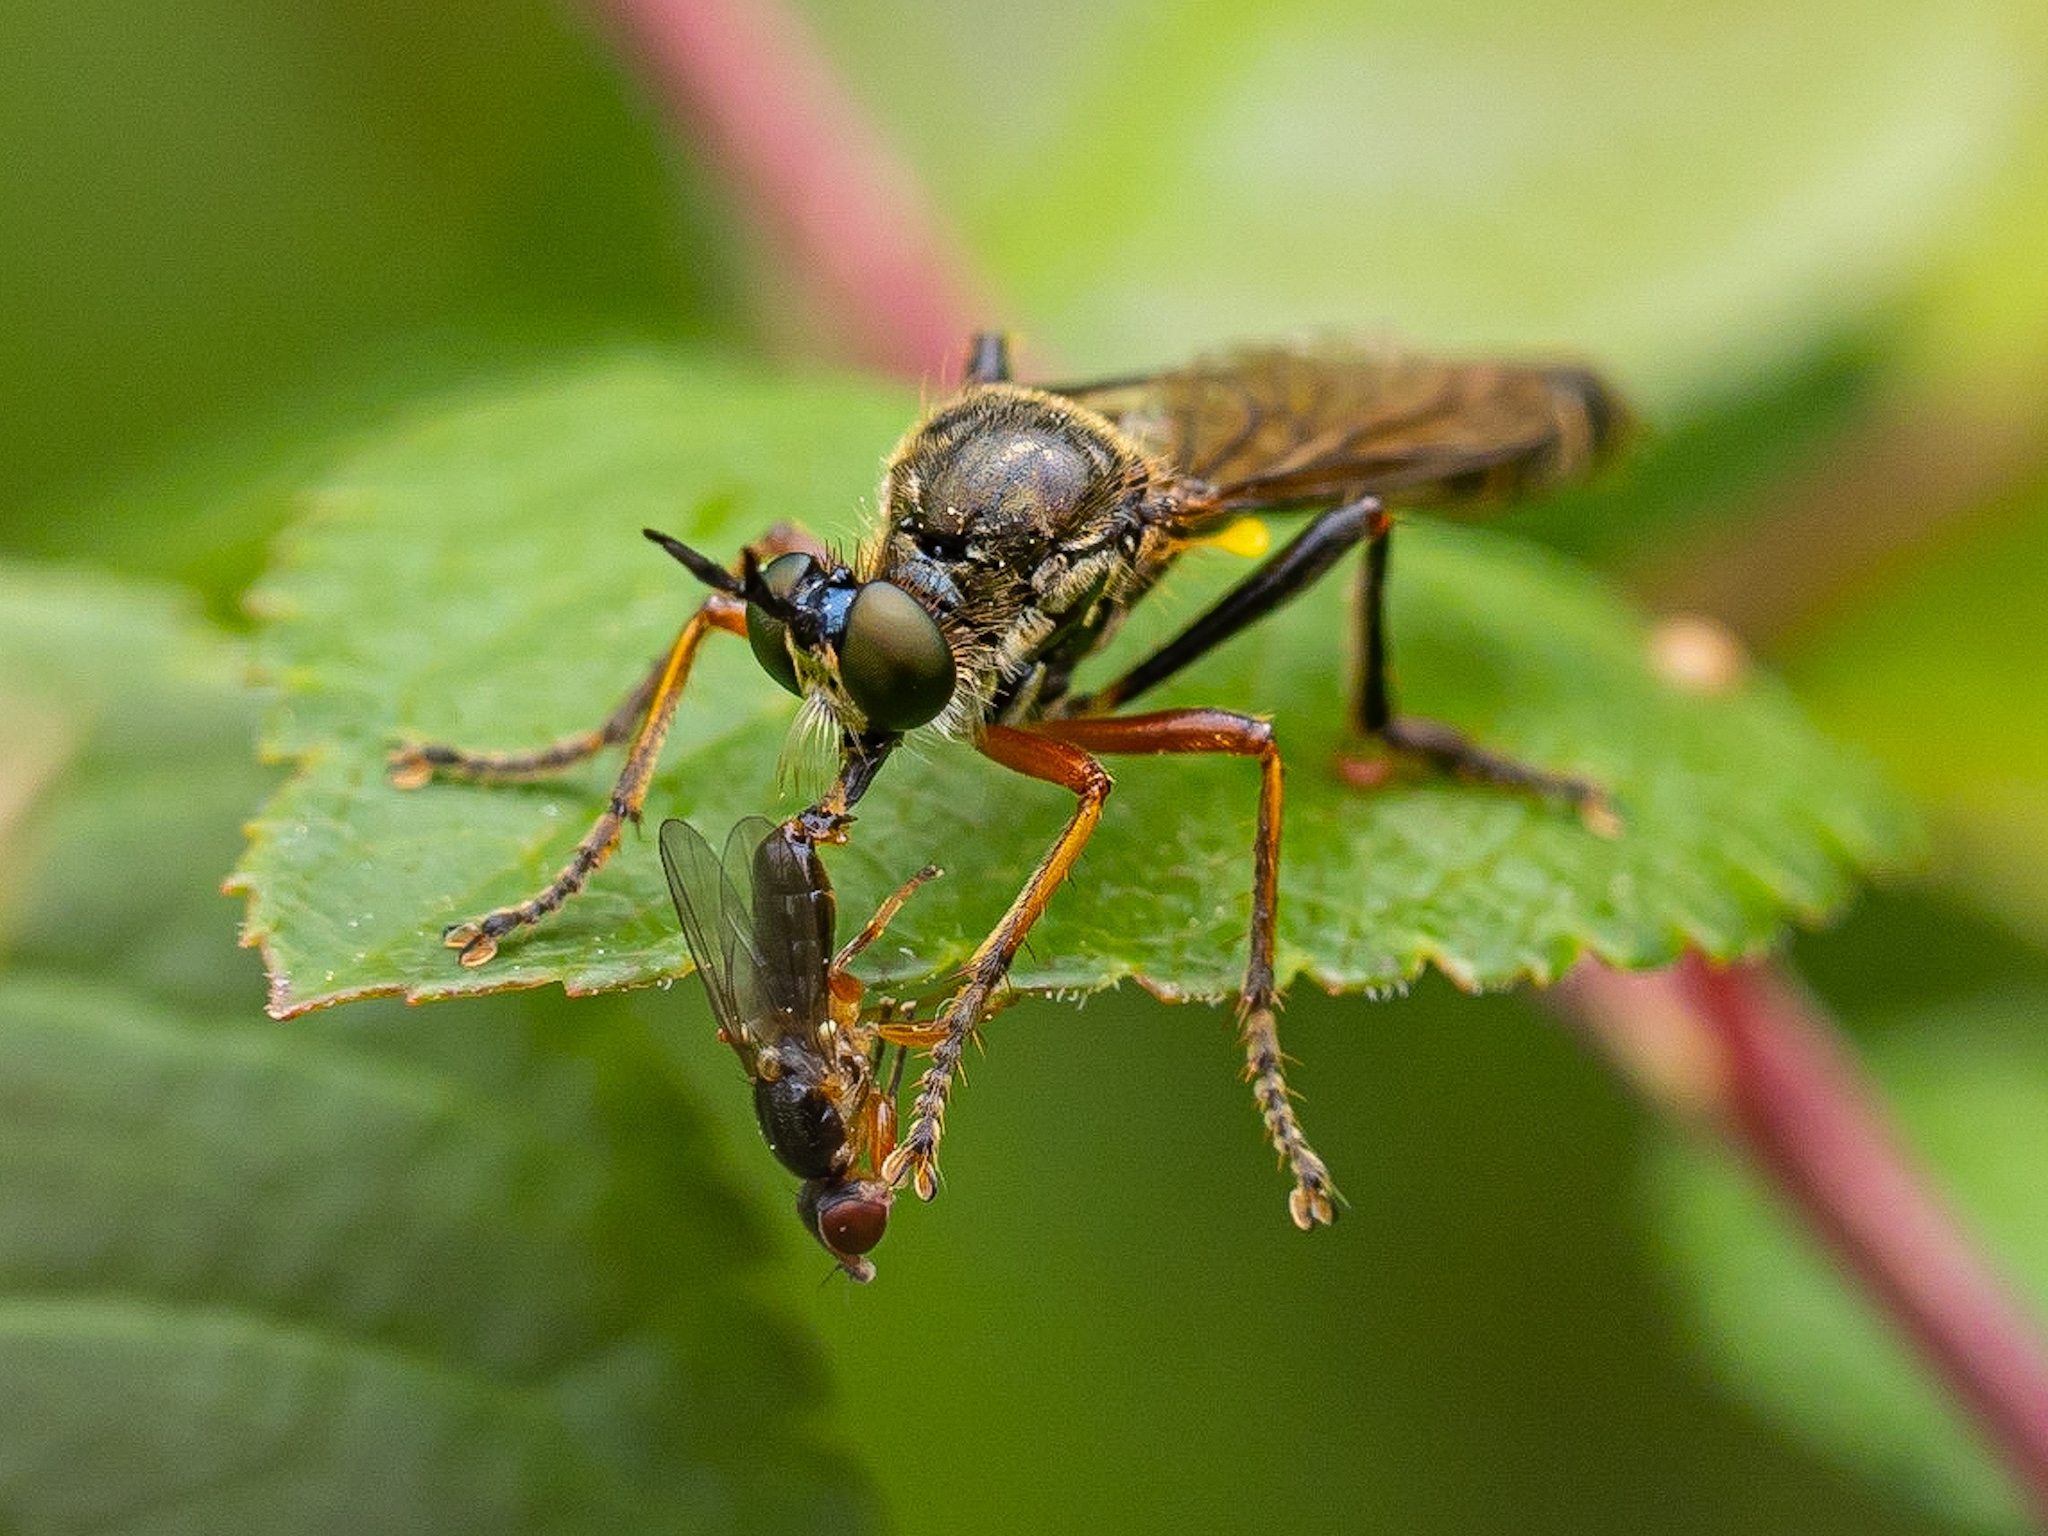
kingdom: Animalia
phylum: Arthropoda
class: Insecta
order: Diptera
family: Asilidae
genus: Dioctria
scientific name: Dioctria rufipes
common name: Common red-legged robberfly
